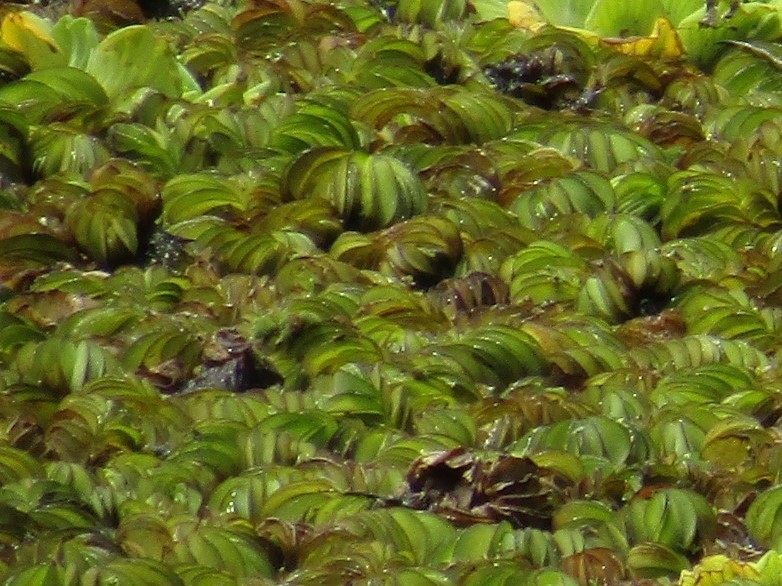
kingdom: Plantae
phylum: Tracheophyta
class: Polypodiopsida
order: Salviniales
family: Salviniaceae
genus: Salvinia
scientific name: Salvinia biloba
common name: Giant salvinia
